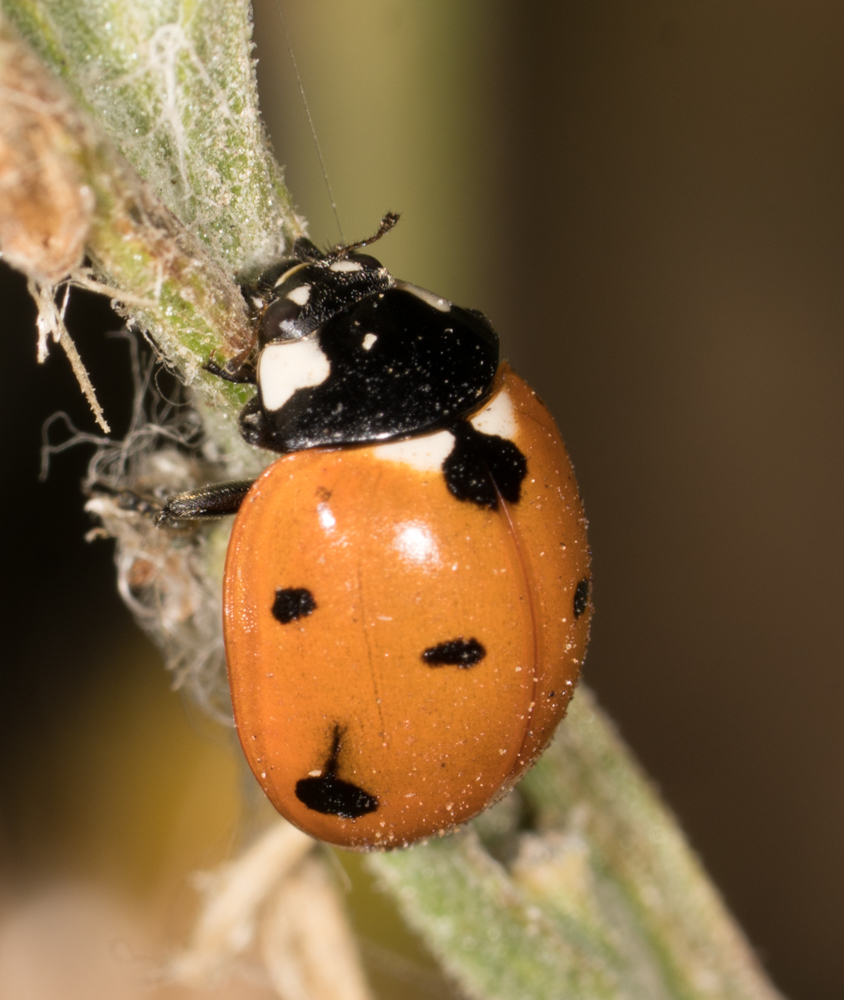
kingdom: Animalia
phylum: Arthropoda
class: Insecta
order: Coleoptera
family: Coccinellidae
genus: Coccinella
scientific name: Coccinella septempunctata
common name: Sevenspotted lady beetle
